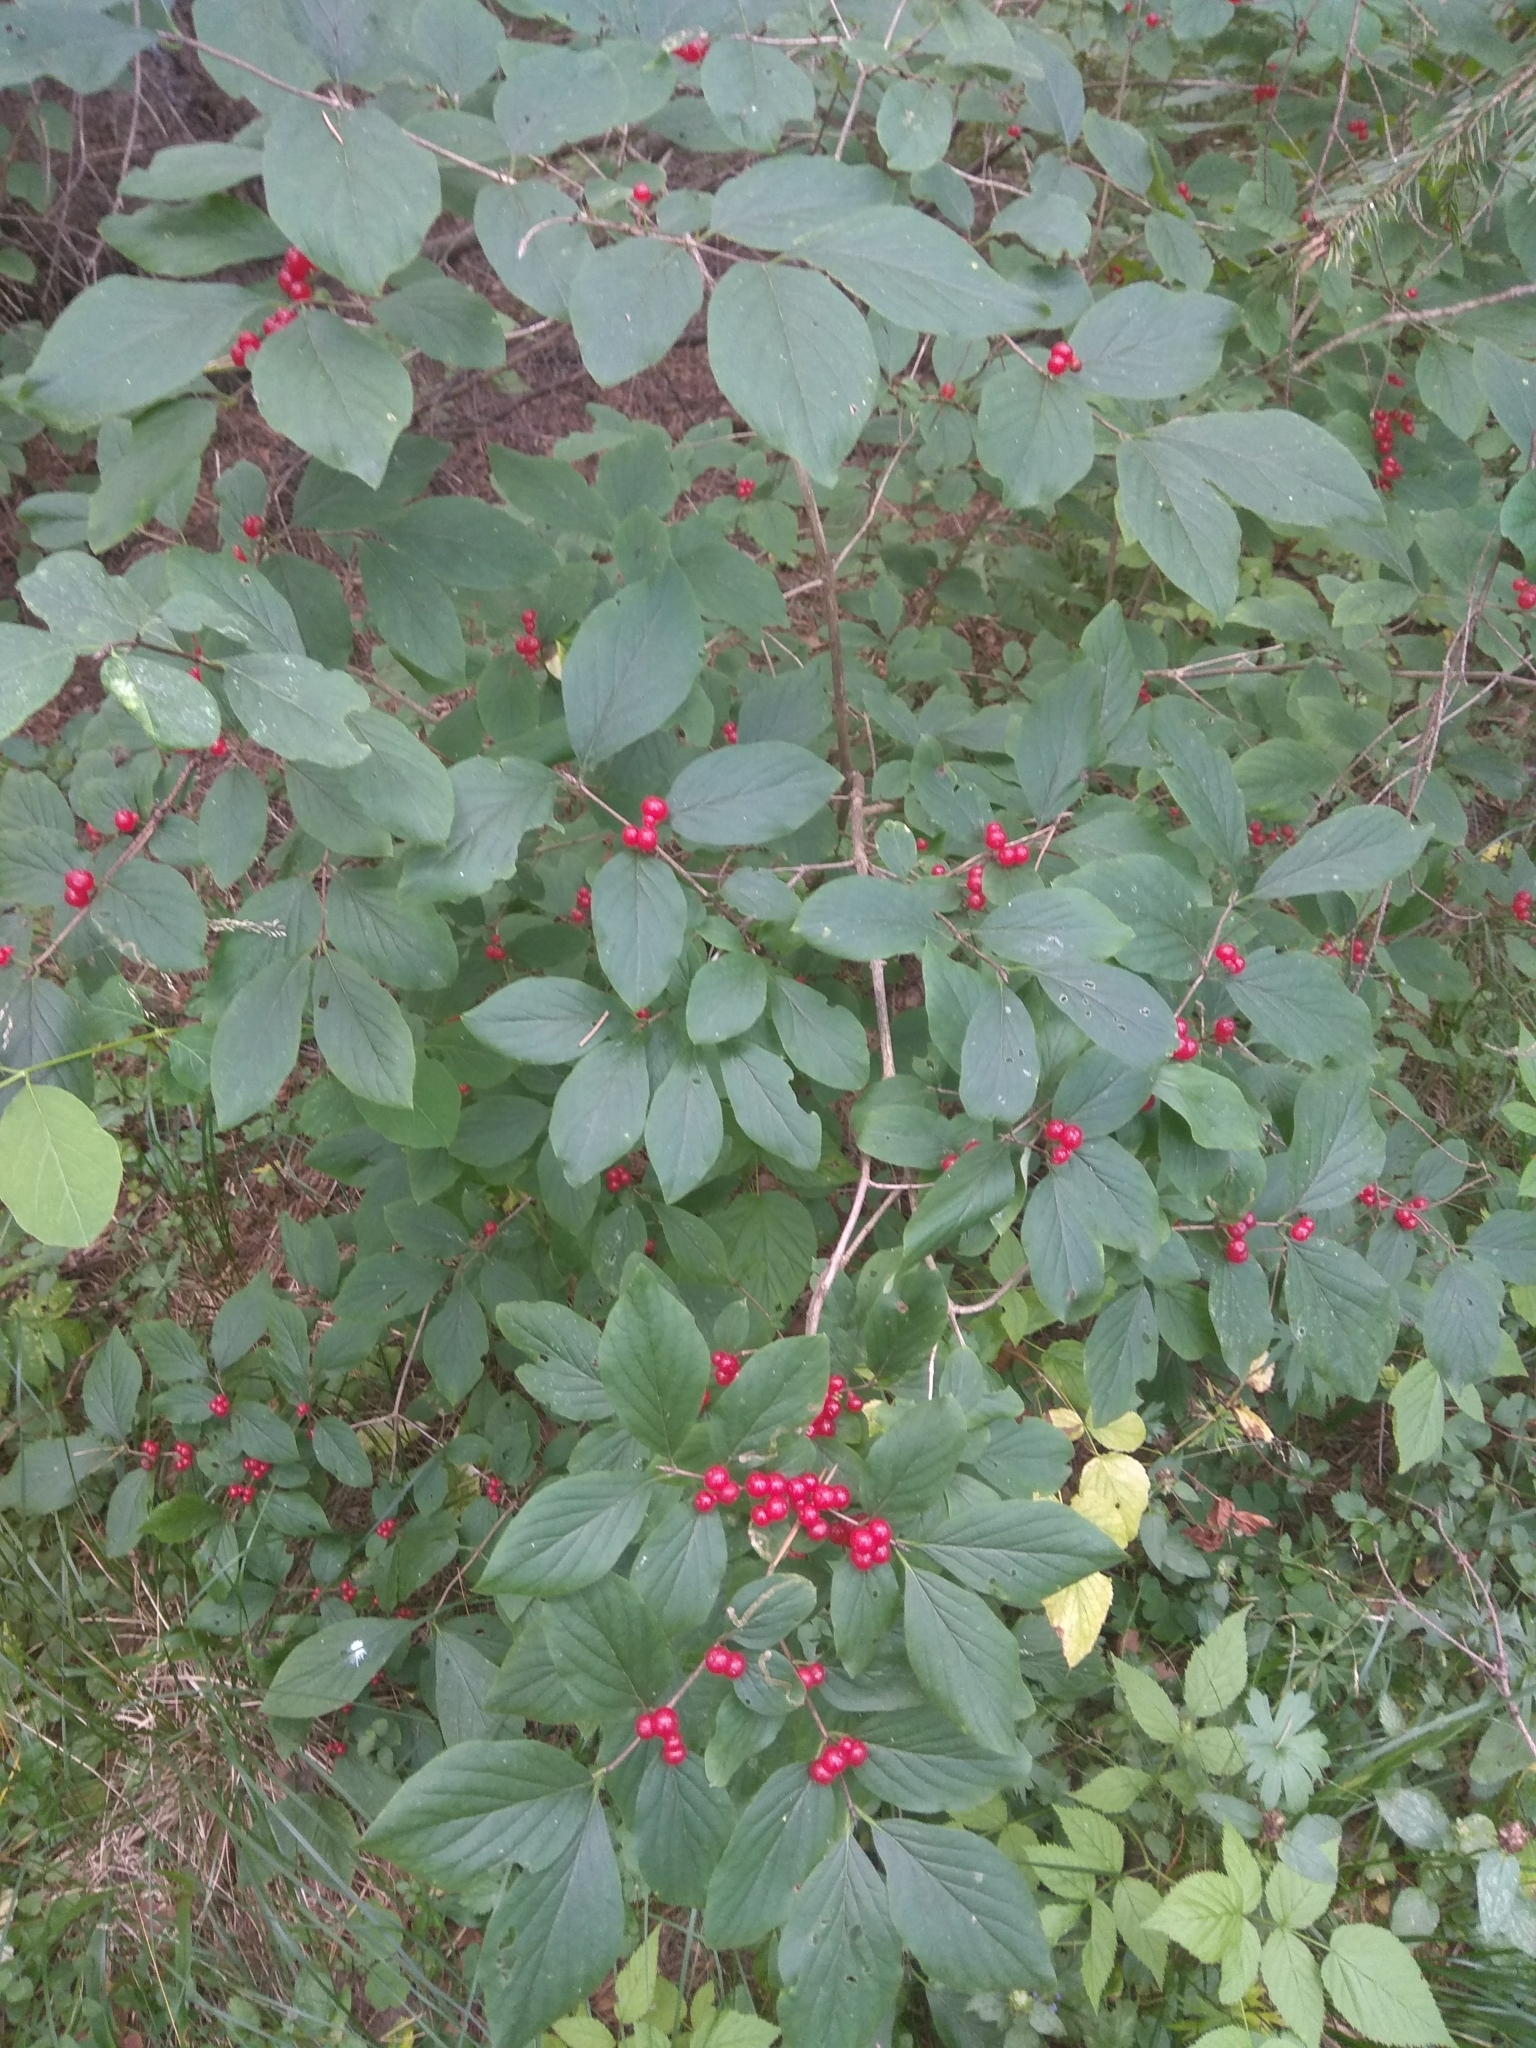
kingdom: Plantae
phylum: Tracheophyta
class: Magnoliopsida
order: Dipsacales
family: Caprifoliaceae
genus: Lonicera
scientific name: Lonicera xylosteum
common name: Fly honeysuckle
